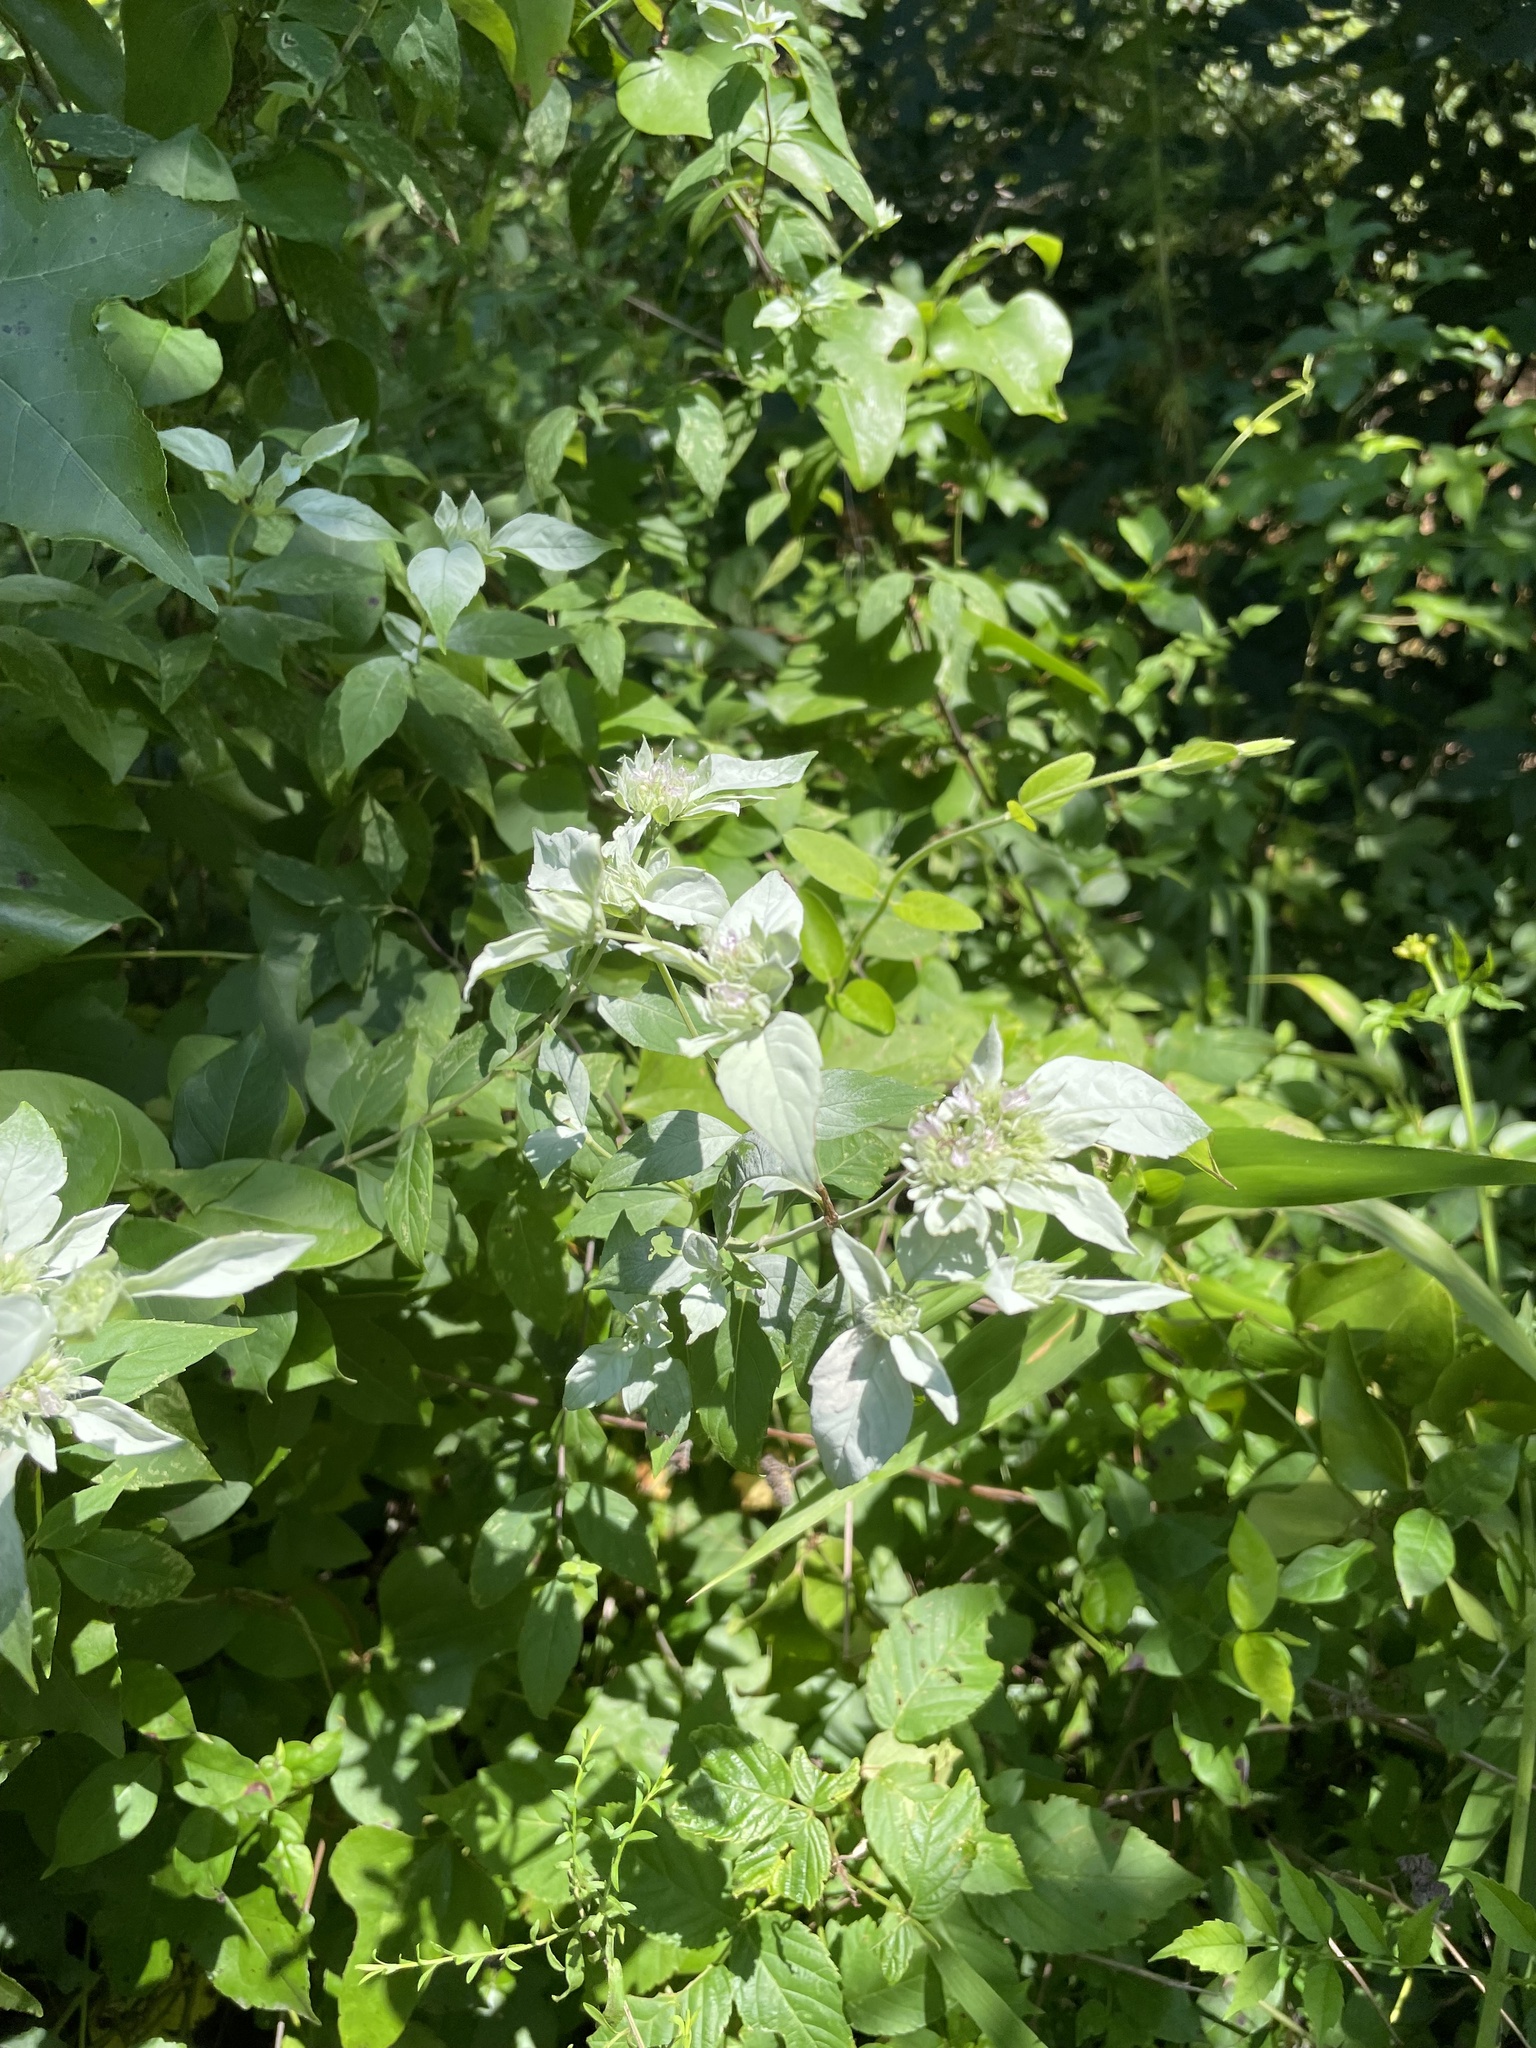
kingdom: Plantae
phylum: Tracheophyta
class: Magnoliopsida
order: Lamiales
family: Lamiaceae
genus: Pycnanthemum
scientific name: Pycnanthemum pycnanthemoides
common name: Southern mountain-mint
